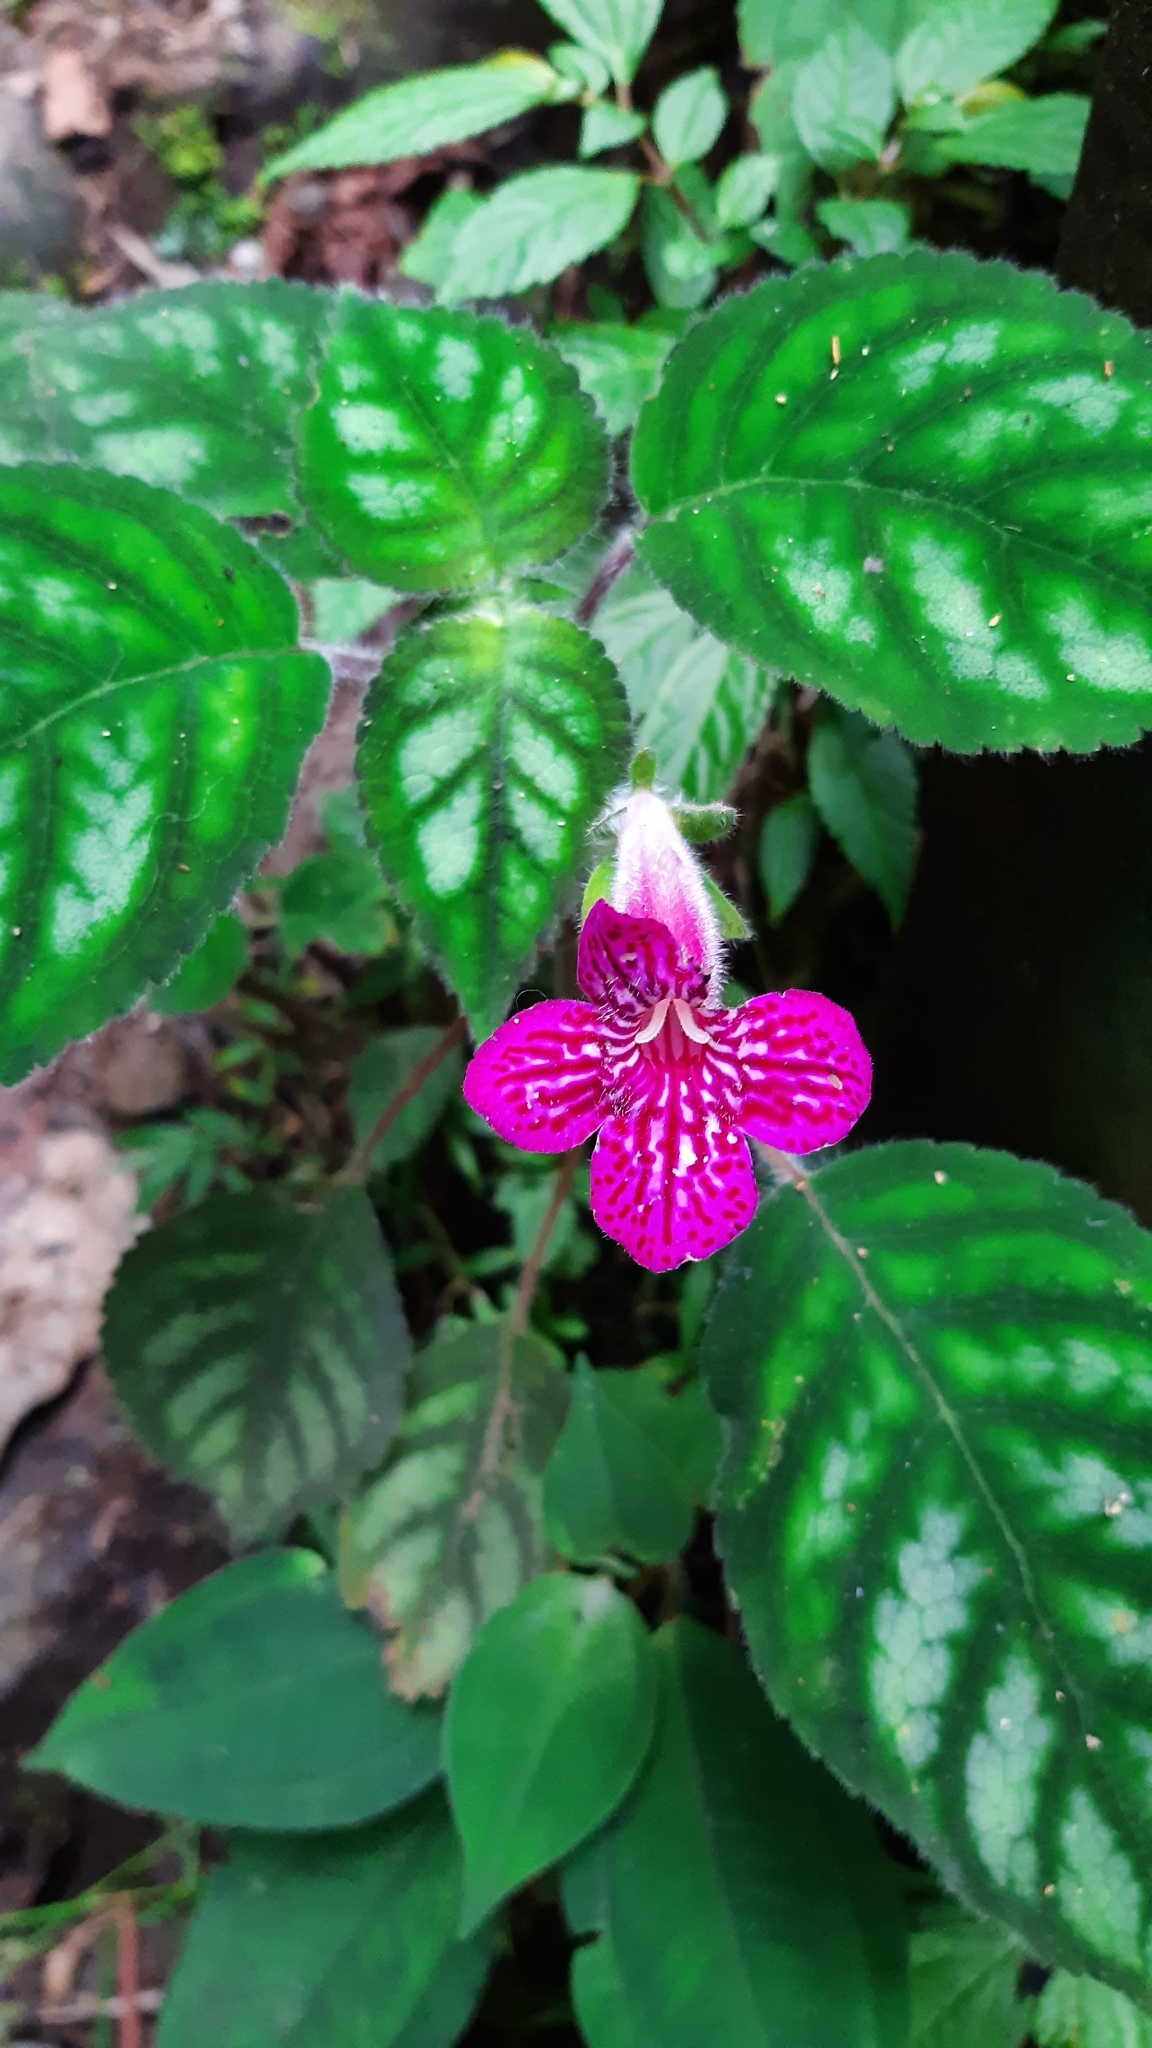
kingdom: Plantae
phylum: Tracheophyta
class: Magnoliopsida
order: Lamiales
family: Gesneriaceae
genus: Kohleria
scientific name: Kohleria amabilis
